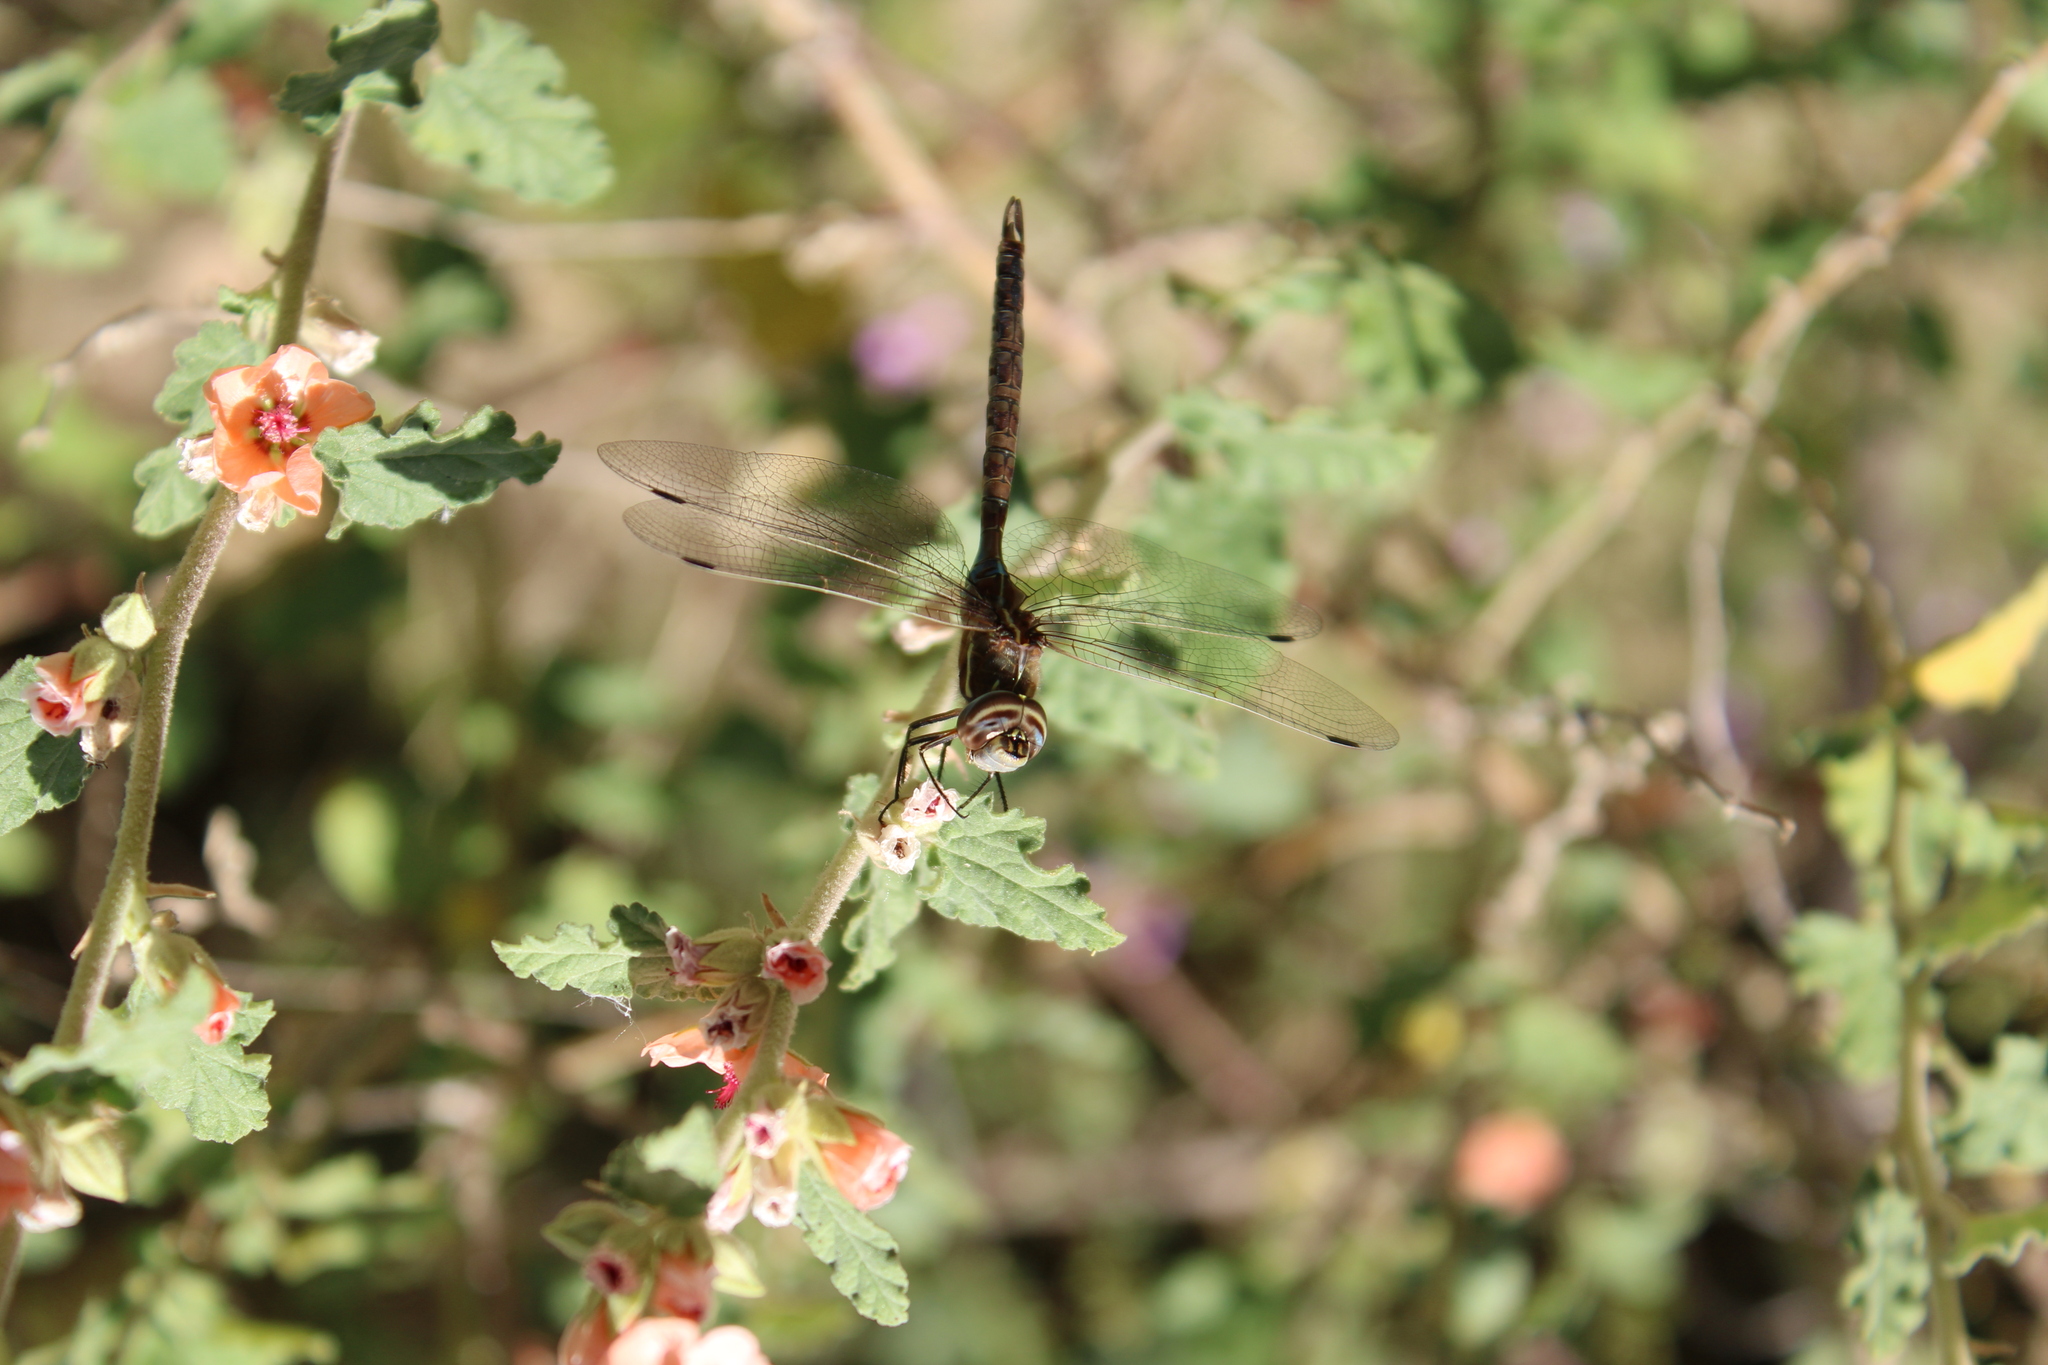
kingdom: Animalia
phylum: Arthropoda
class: Insecta
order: Odonata
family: Aeshnidae
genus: Rhionaeschna
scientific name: Rhionaeschna bonariensis
